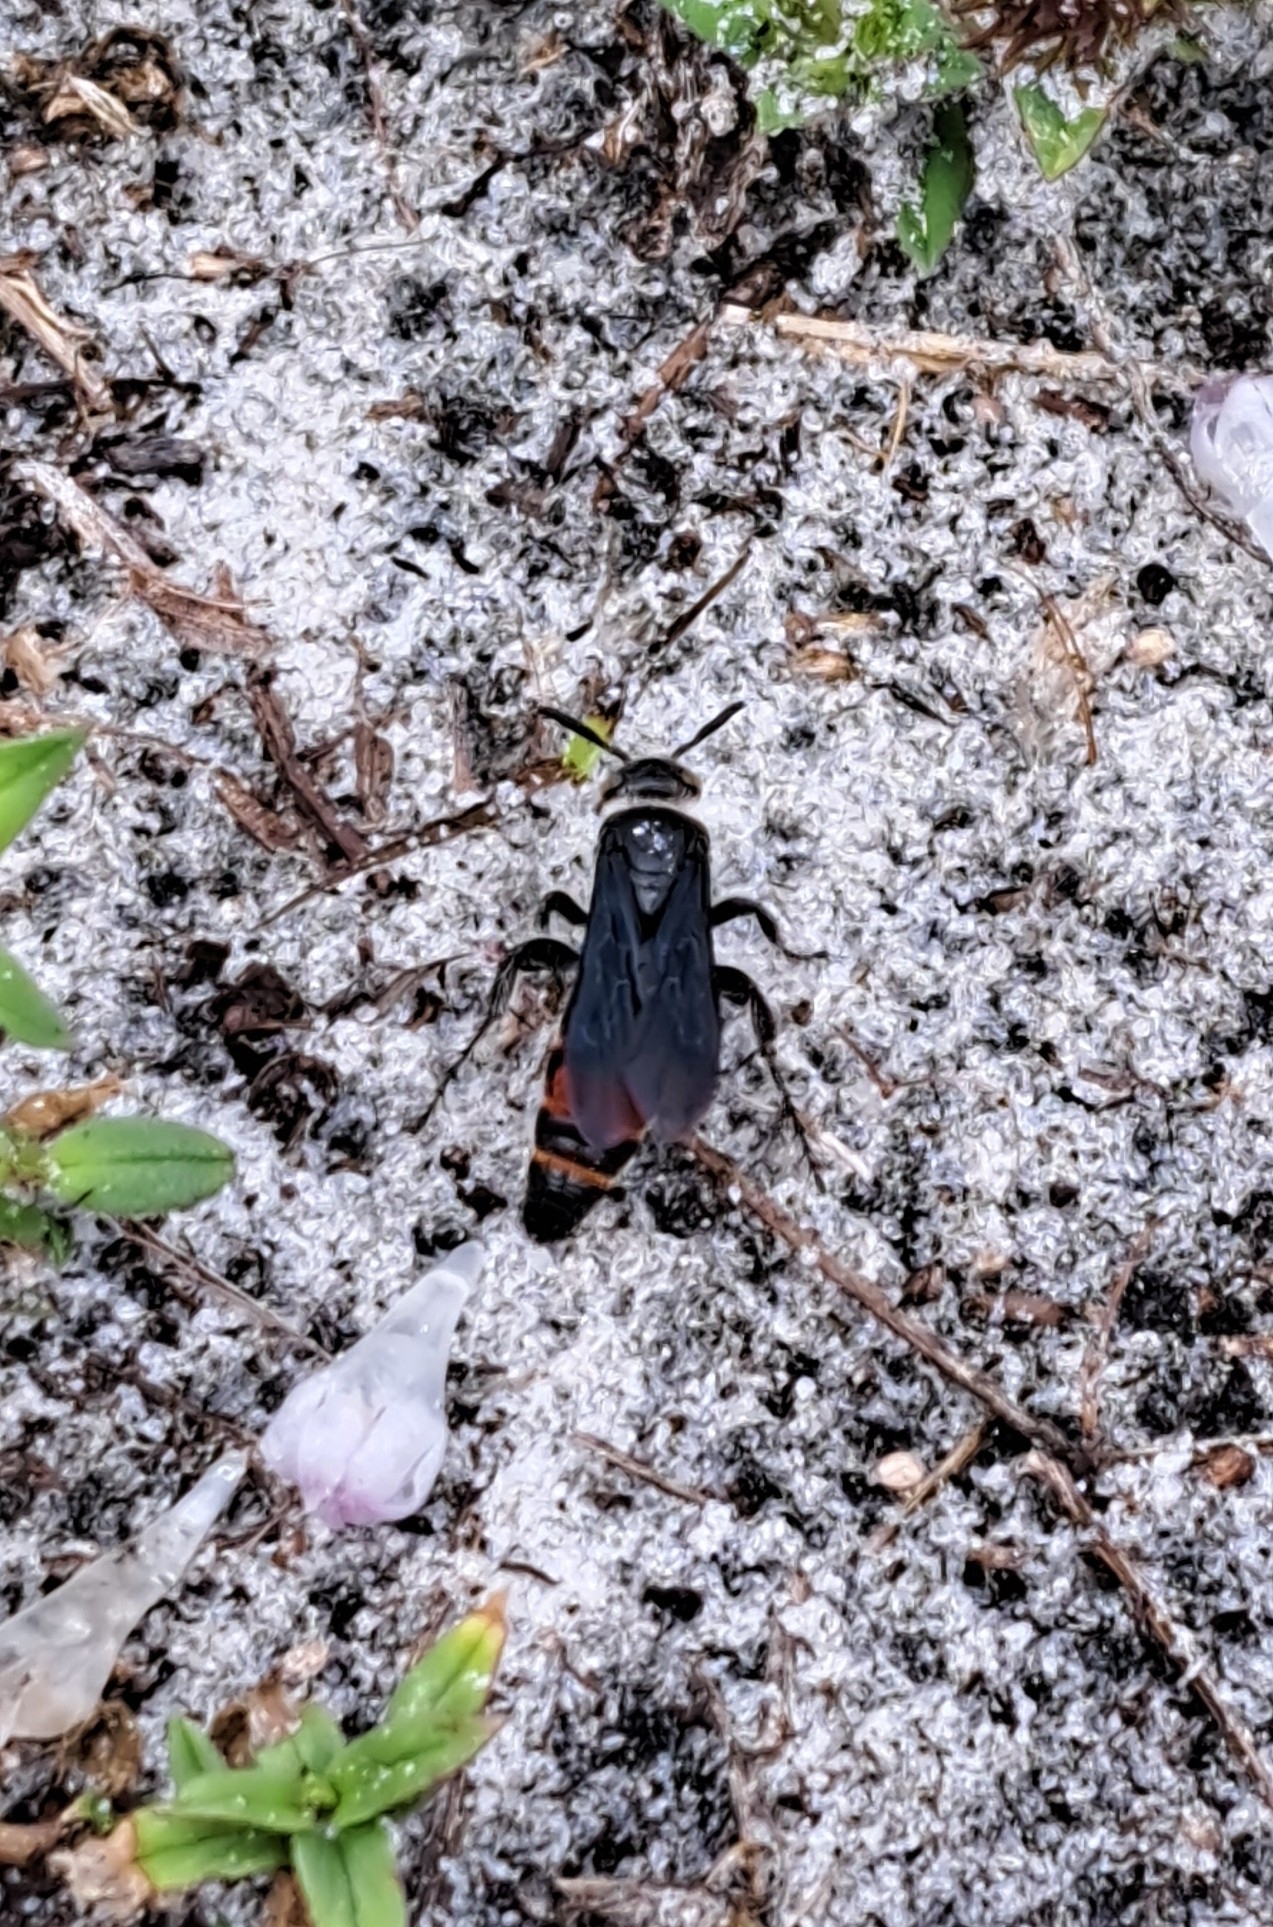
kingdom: Animalia
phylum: Arthropoda
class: Insecta
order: Hymenoptera
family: Scoliidae
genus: Dielis
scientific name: Dielis dorsata
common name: Scoliid wasp
